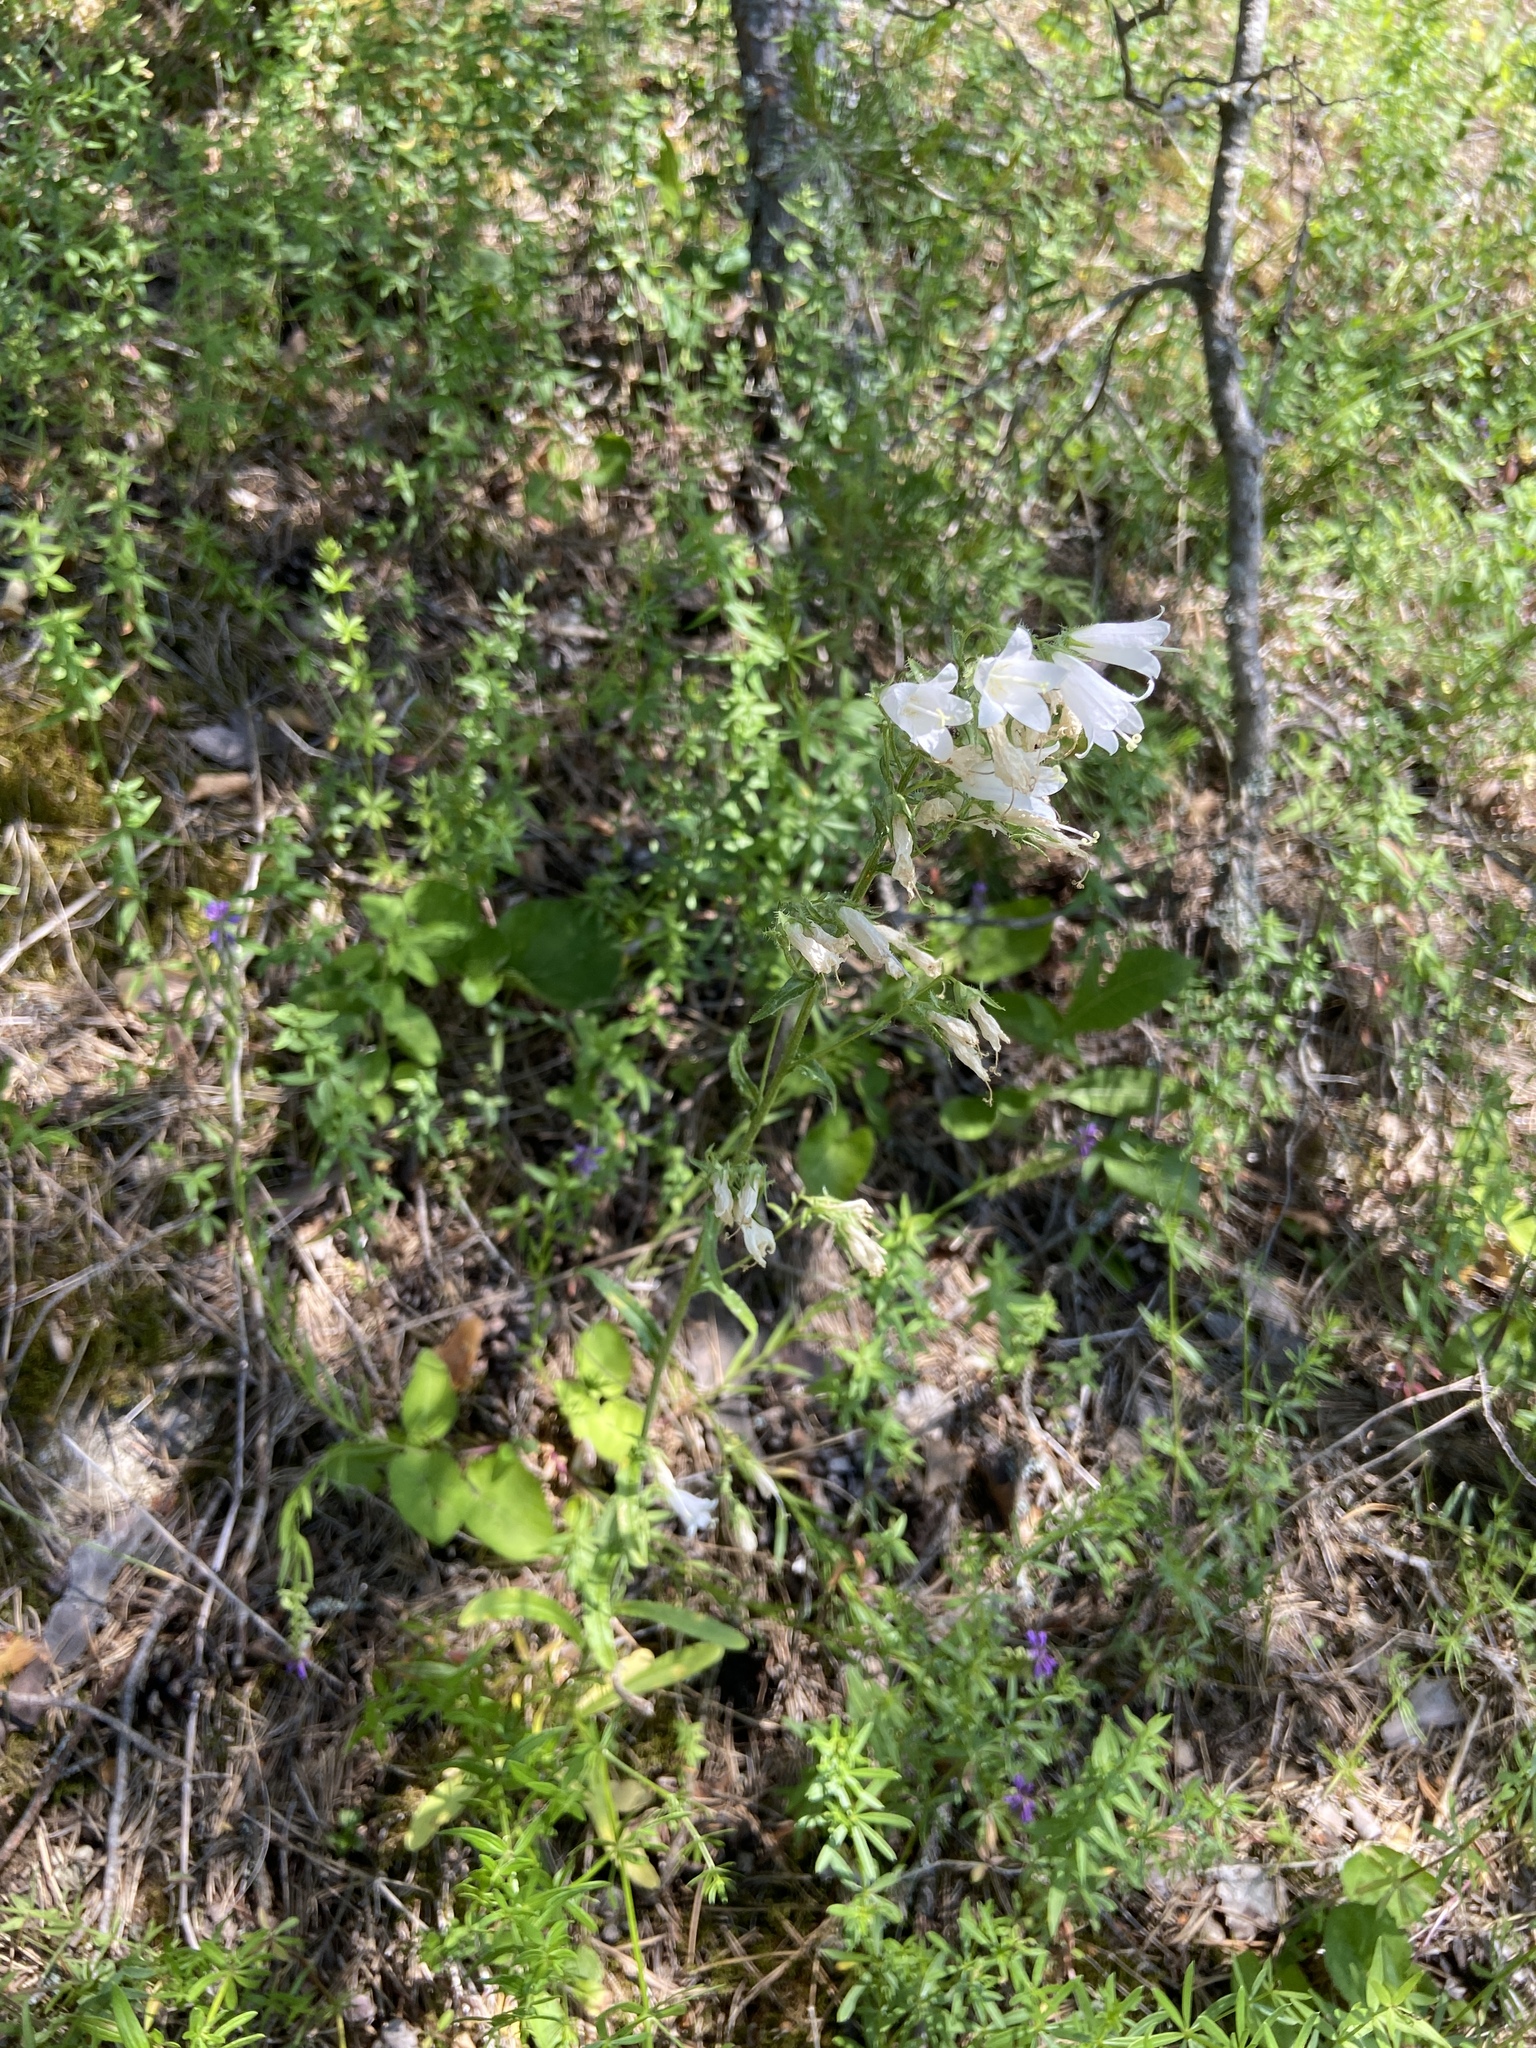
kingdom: Plantae
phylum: Tracheophyta
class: Magnoliopsida
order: Asterales
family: Campanulaceae
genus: Campanula
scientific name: Campanula sibirica
